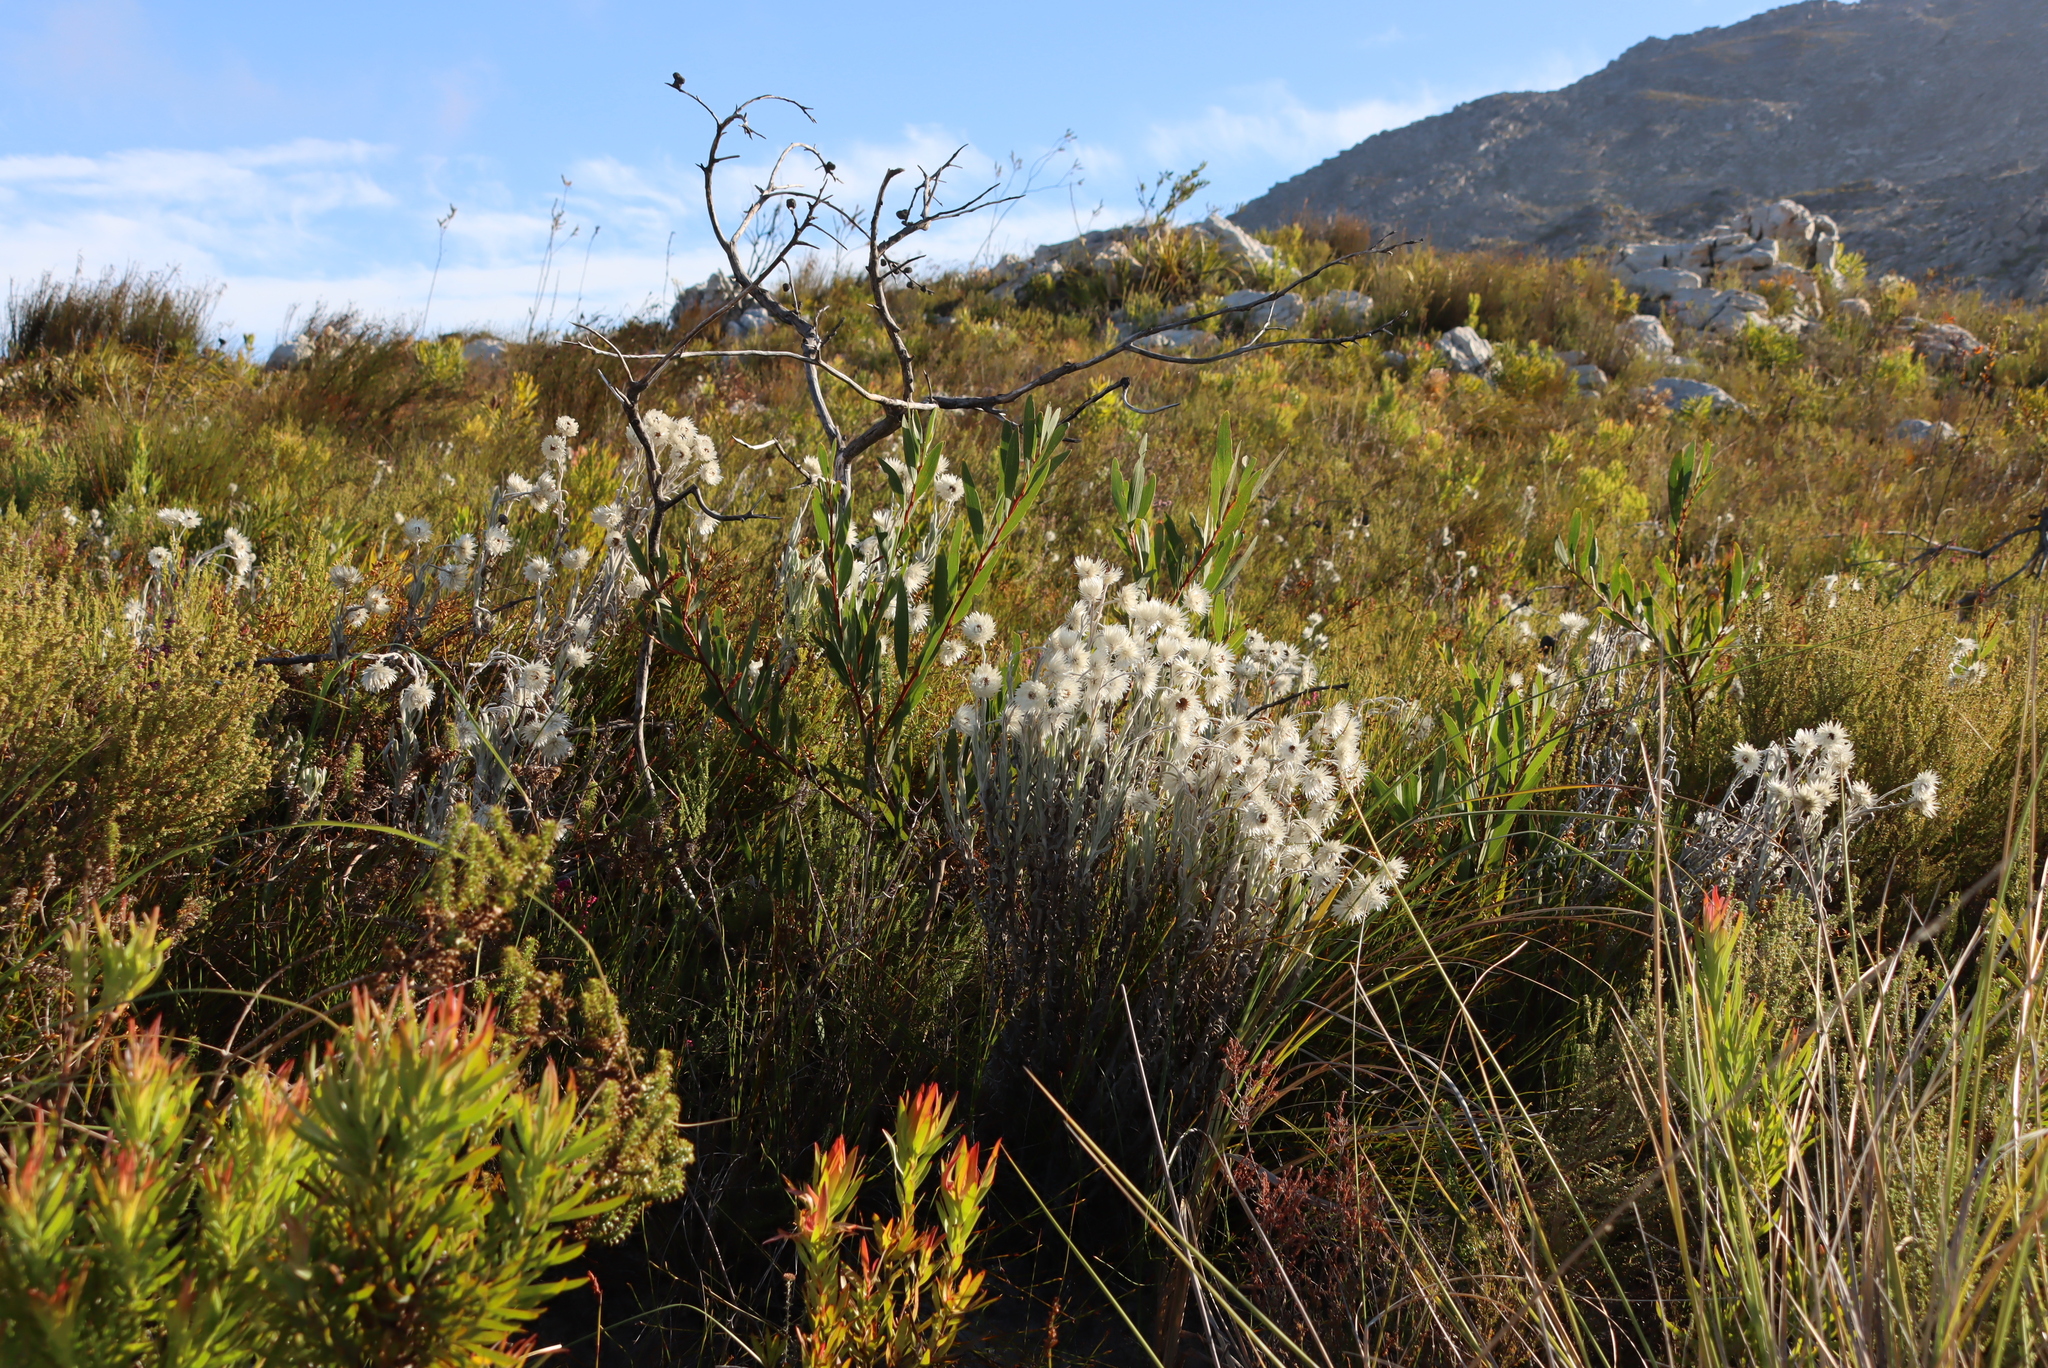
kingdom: Plantae
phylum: Tracheophyta
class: Magnoliopsida
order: Fabales
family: Fabaceae
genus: Acacia
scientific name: Acacia longifolia
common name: Sydney golden wattle
